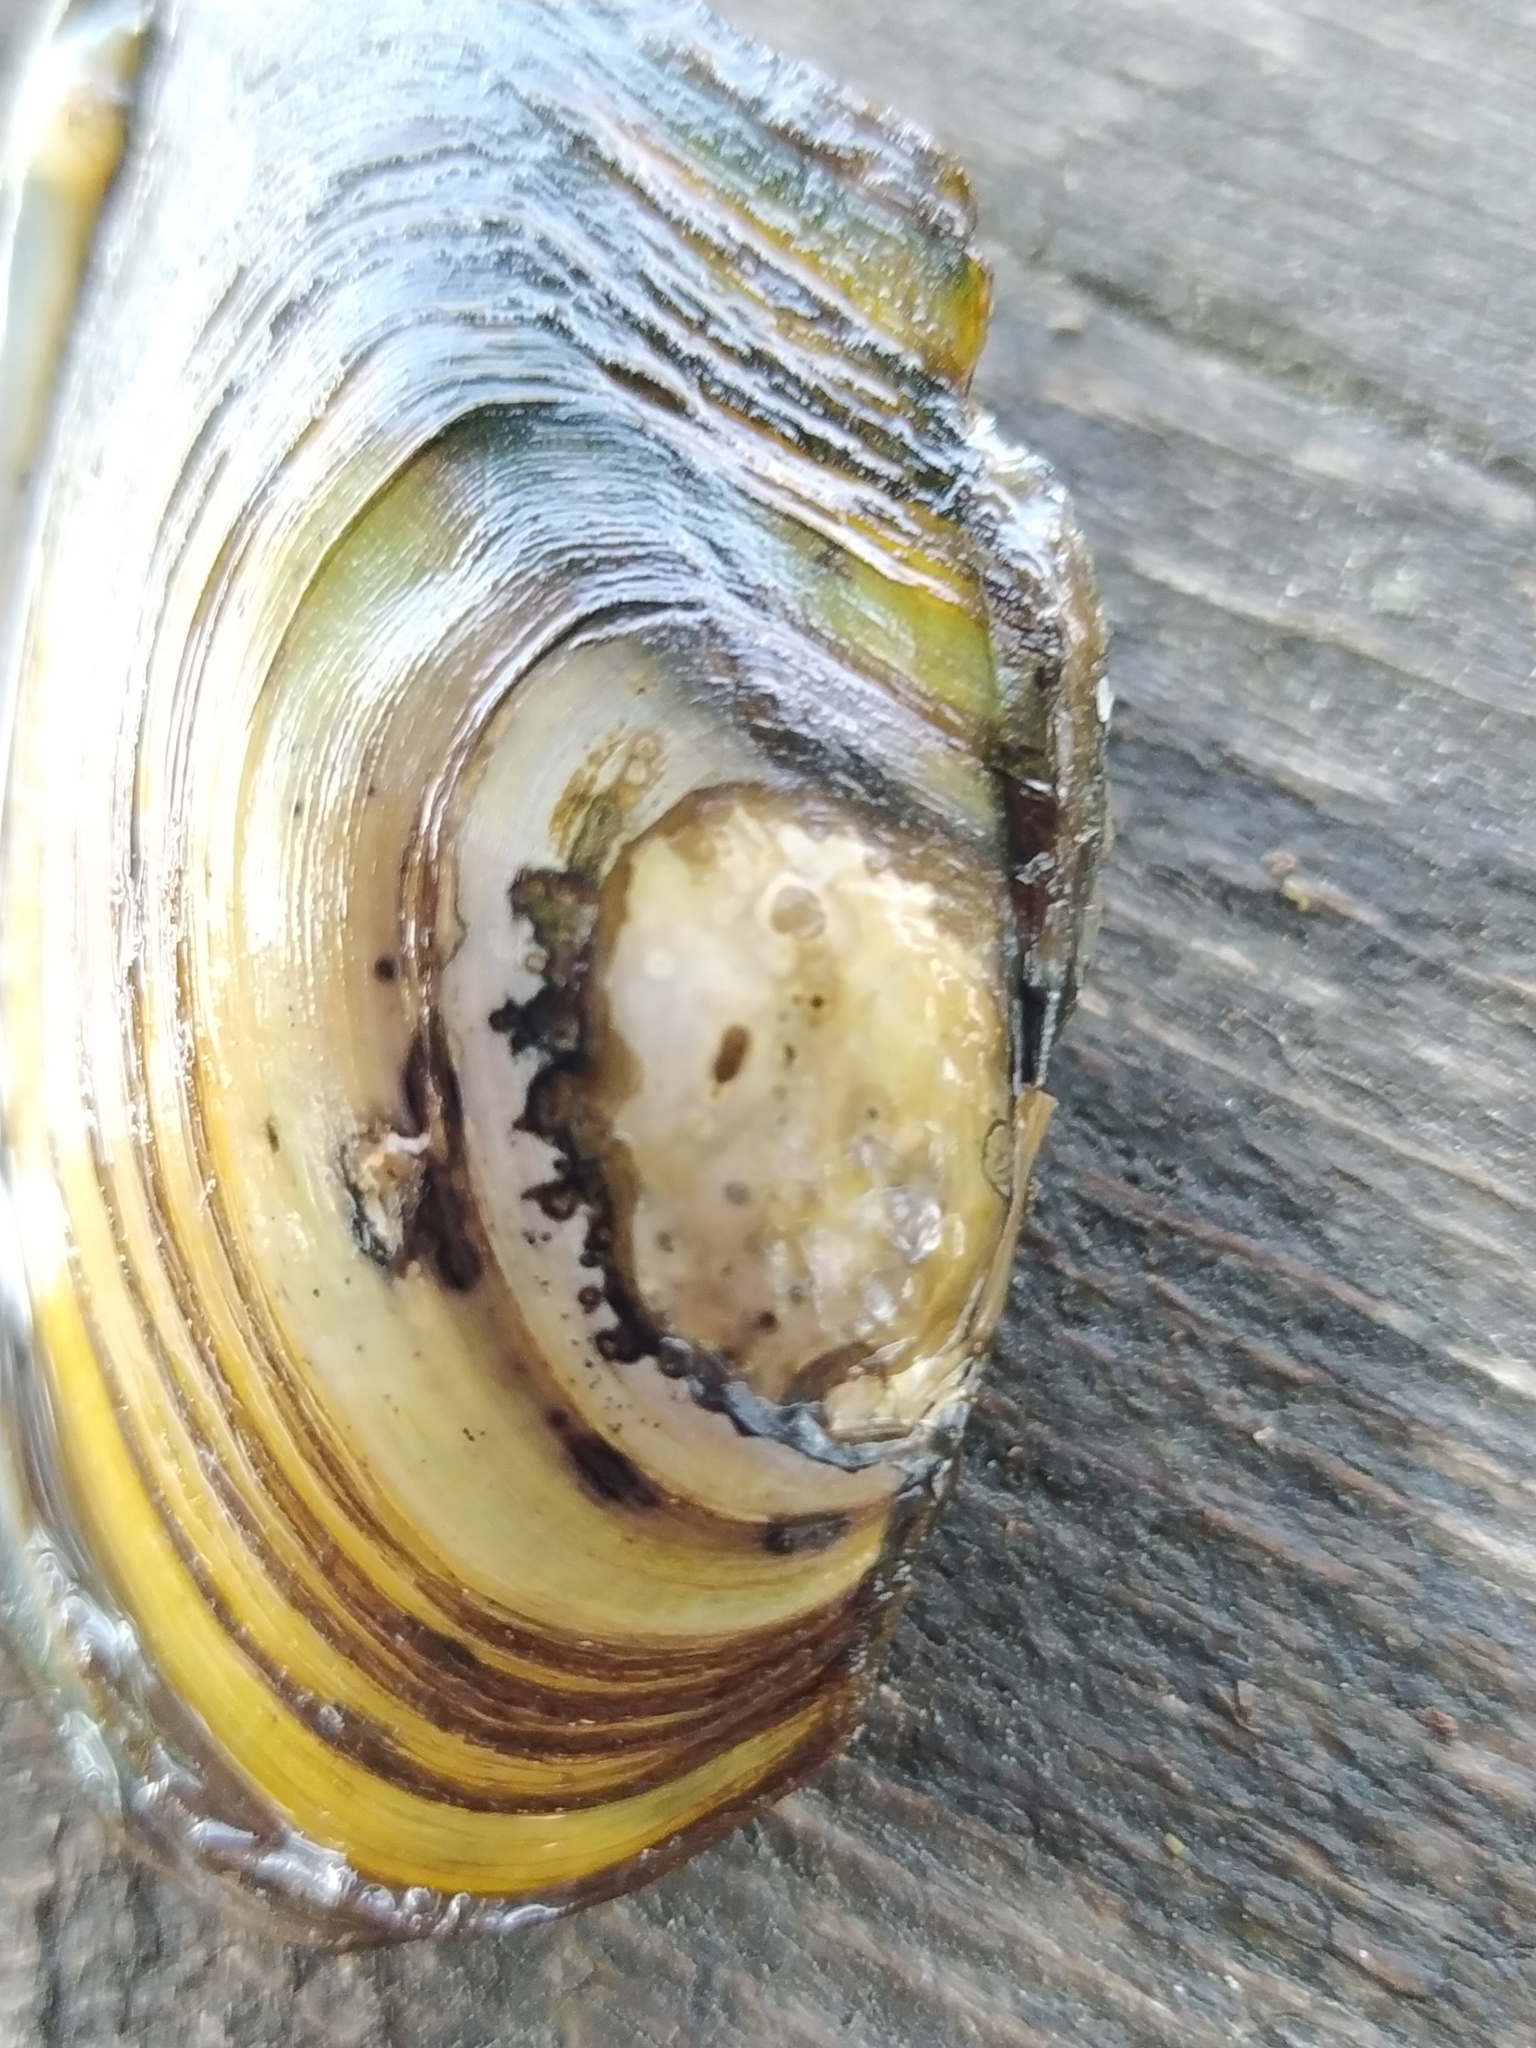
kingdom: Animalia
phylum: Mollusca
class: Bivalvia
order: Unionida
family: Unionidae
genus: Anodonta
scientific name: Anodonta anatina
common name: Duck mussel
